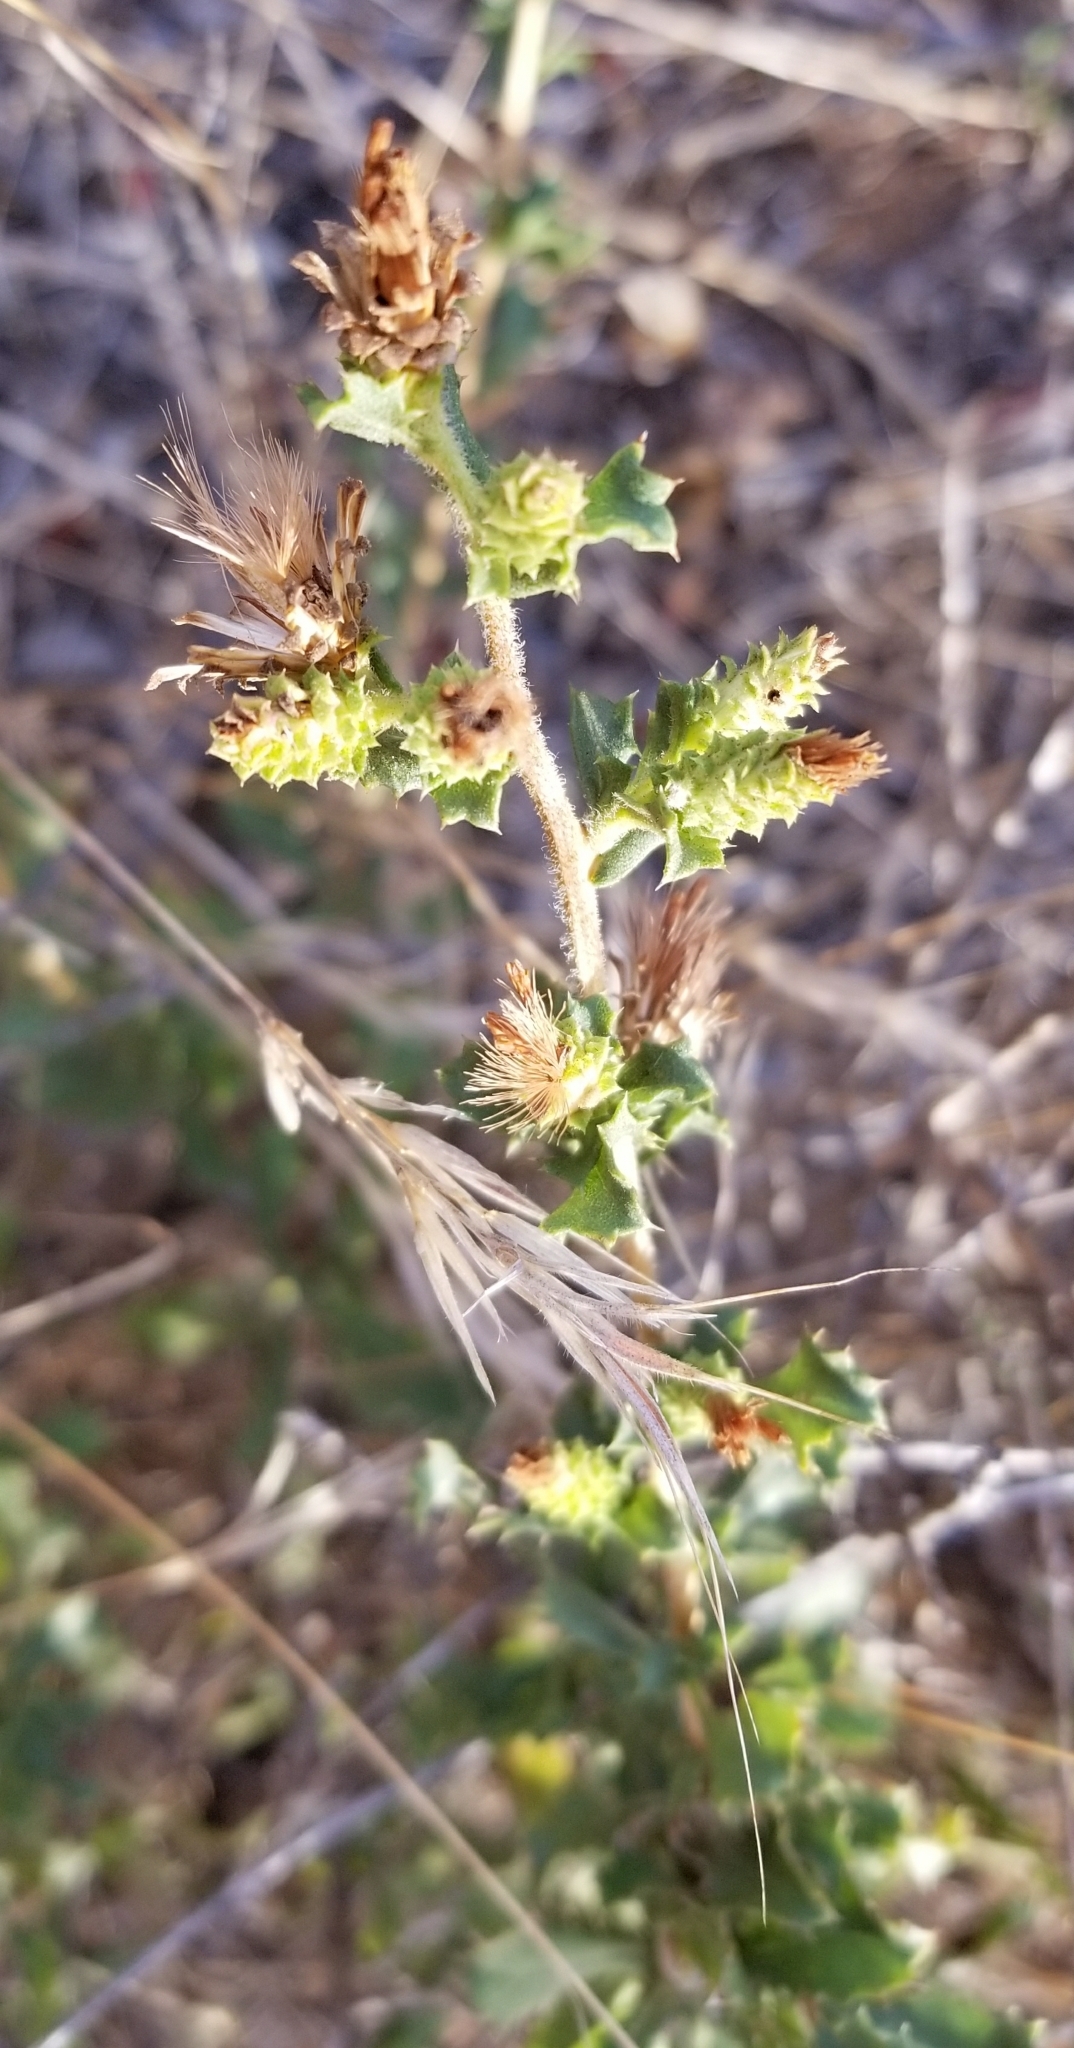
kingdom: Plantae
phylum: Tracheophyta
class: Magnoliopsida
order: Asterales
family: Asteraceae
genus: Hazardia
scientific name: Hazardia squarrosa
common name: Saw-tooth goldenbush
